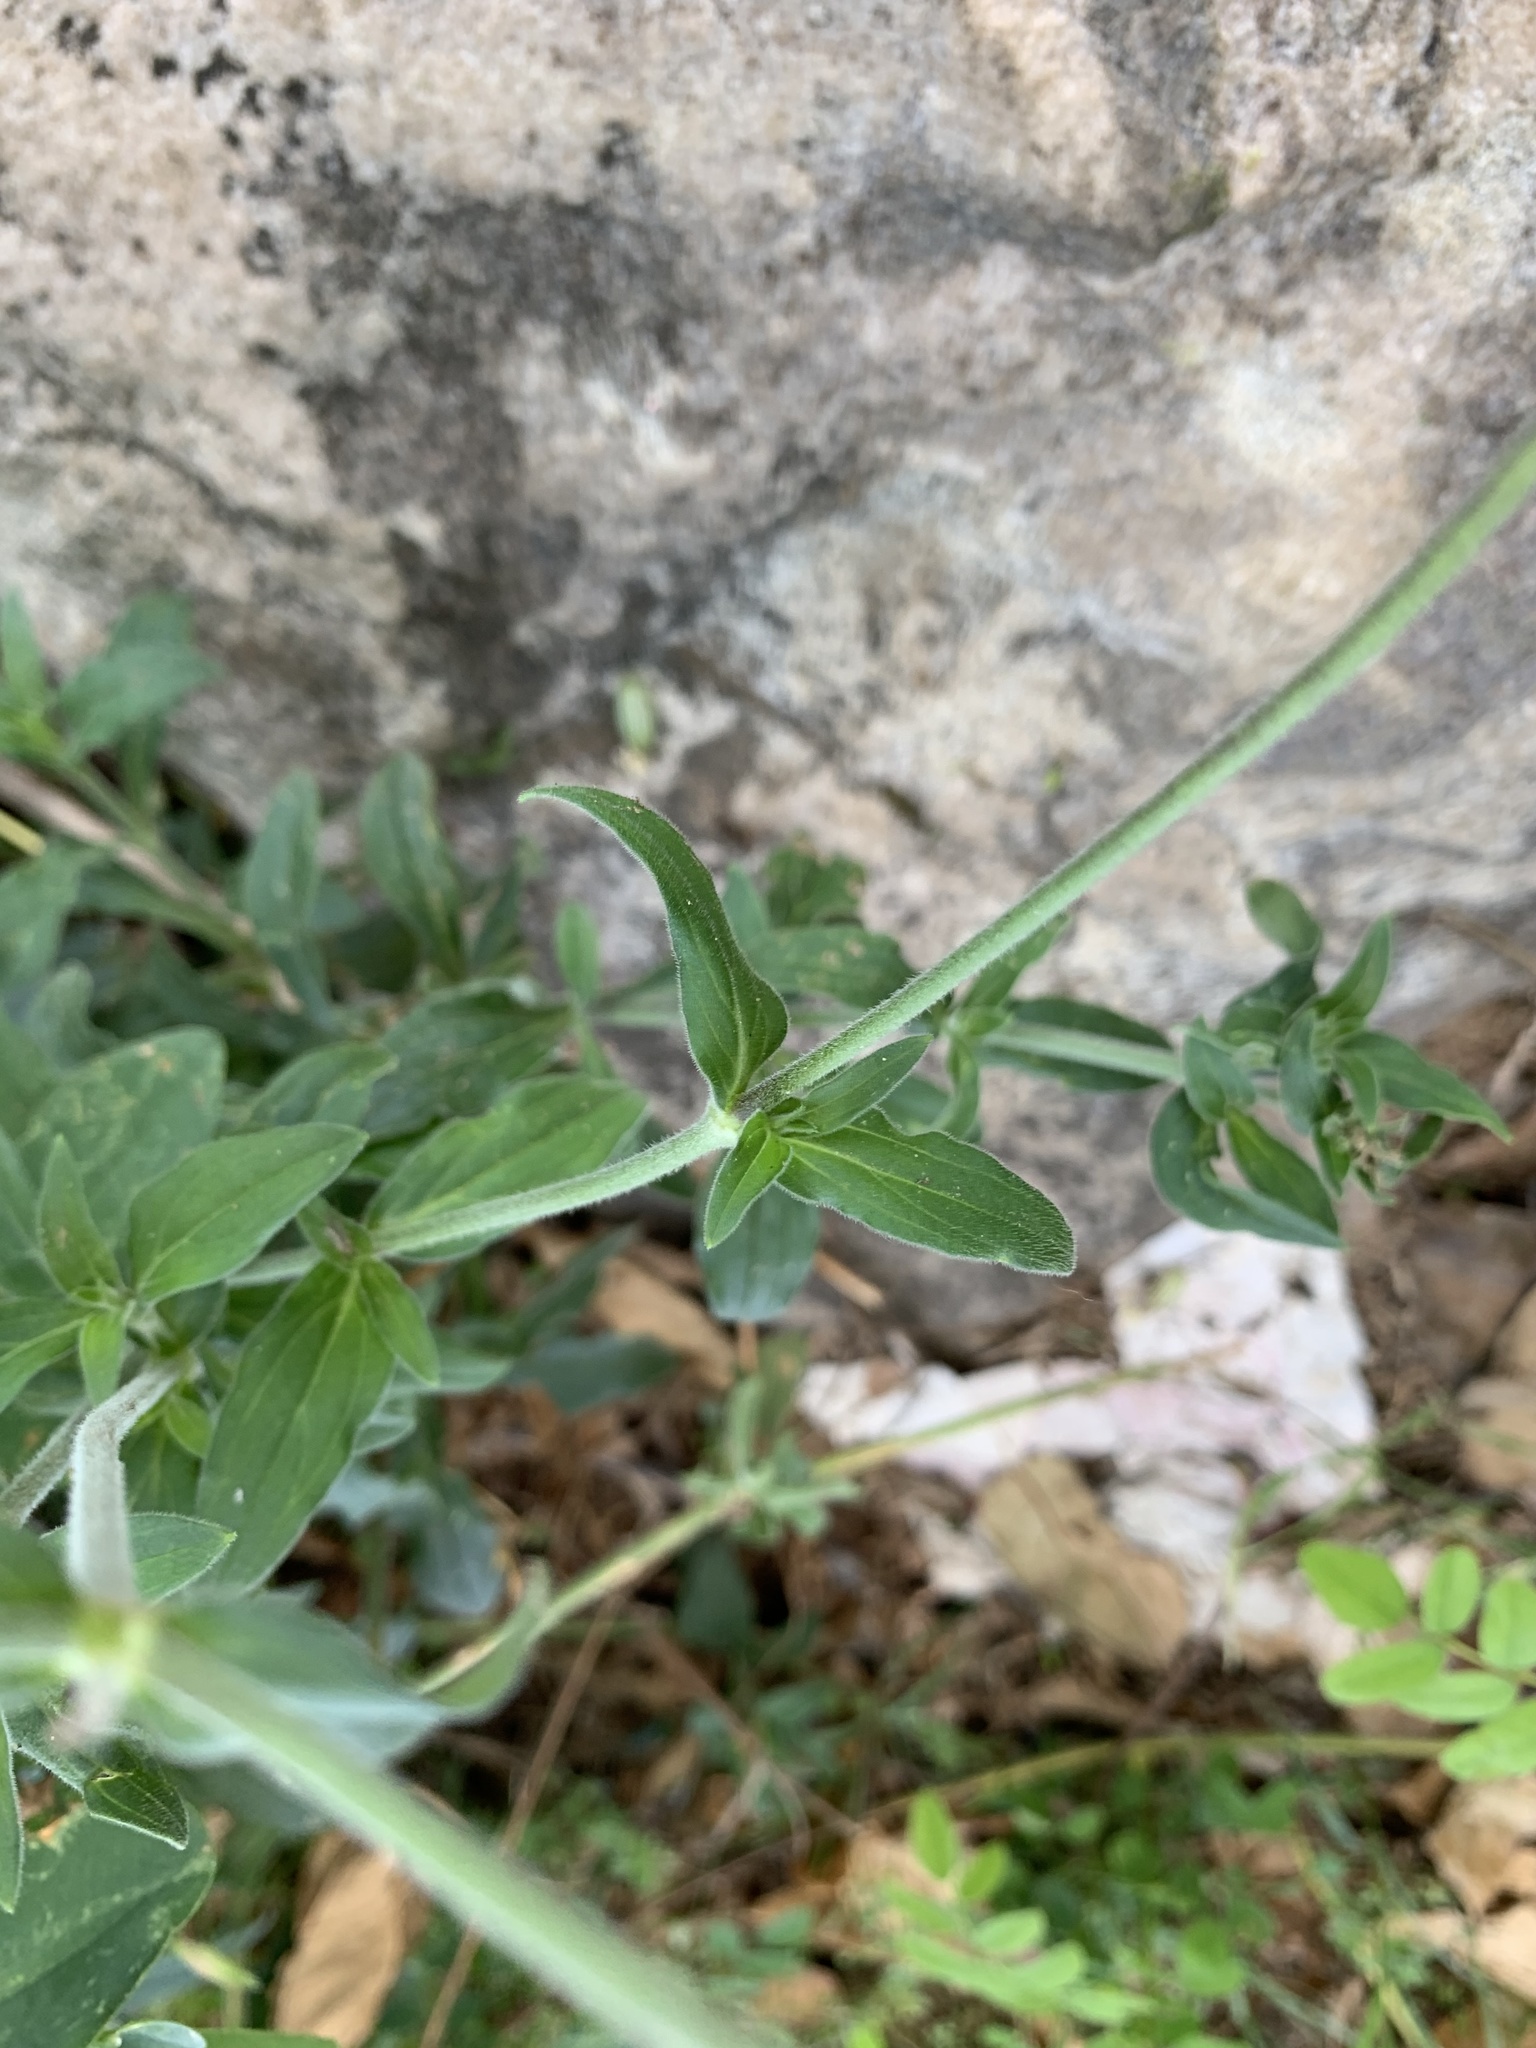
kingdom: Plantae
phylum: Tracheophyta
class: Magnoliopsida
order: Caryophyllales
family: Caryophyllaceae
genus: Silene
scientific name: Silene latifolia
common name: White campion
